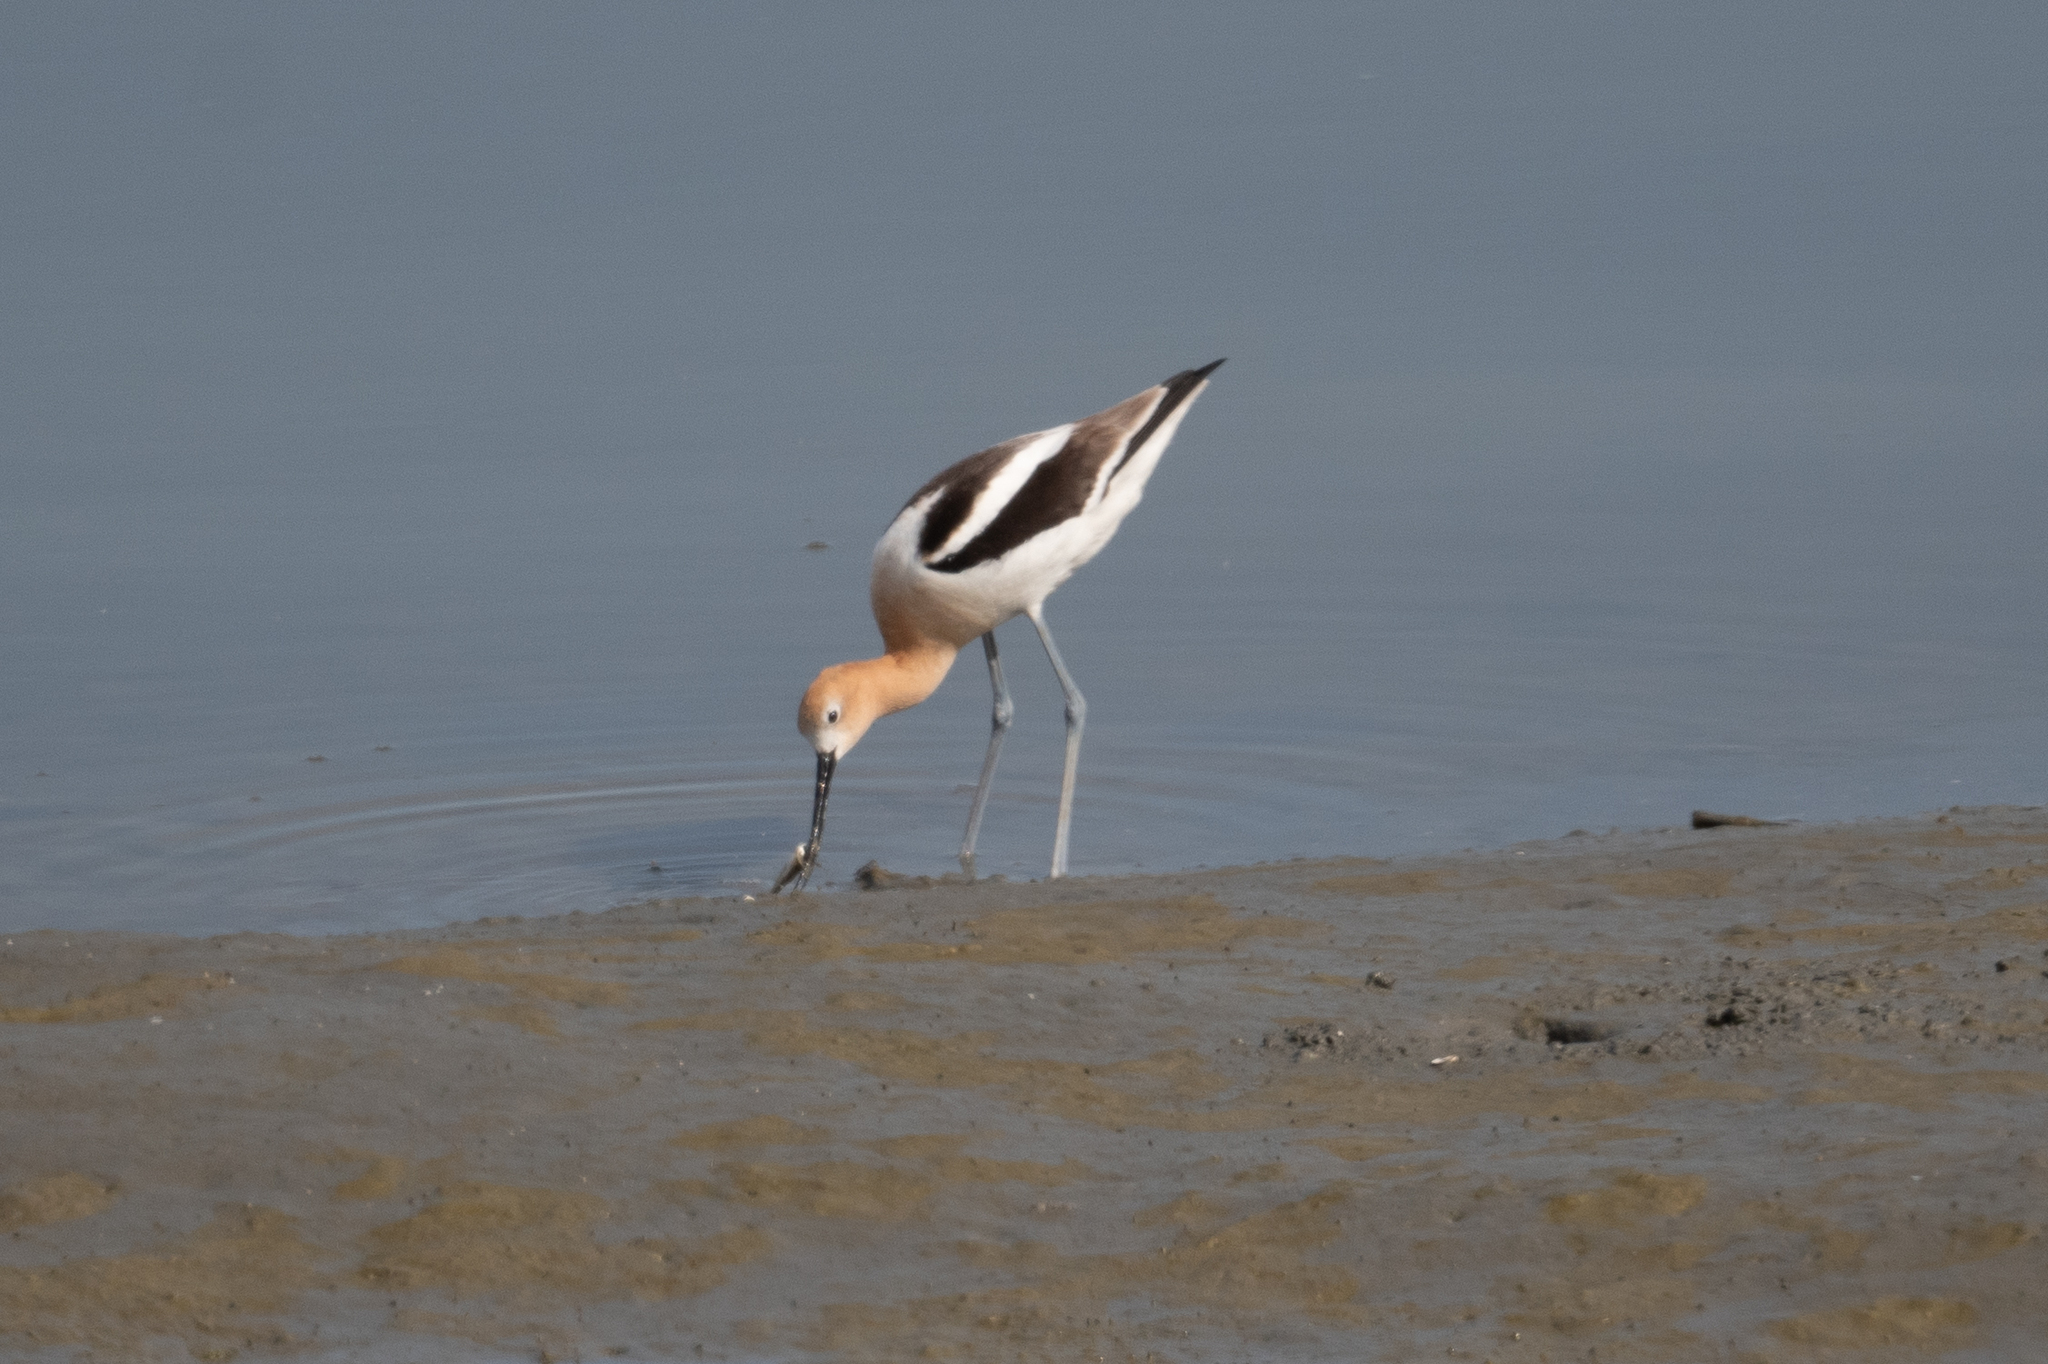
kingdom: Animalia
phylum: Chordata
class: Aves
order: Charadriiformes
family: Recurvirostridae
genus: Recurvirostra
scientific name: Recurvirostra americana
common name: American avocet
